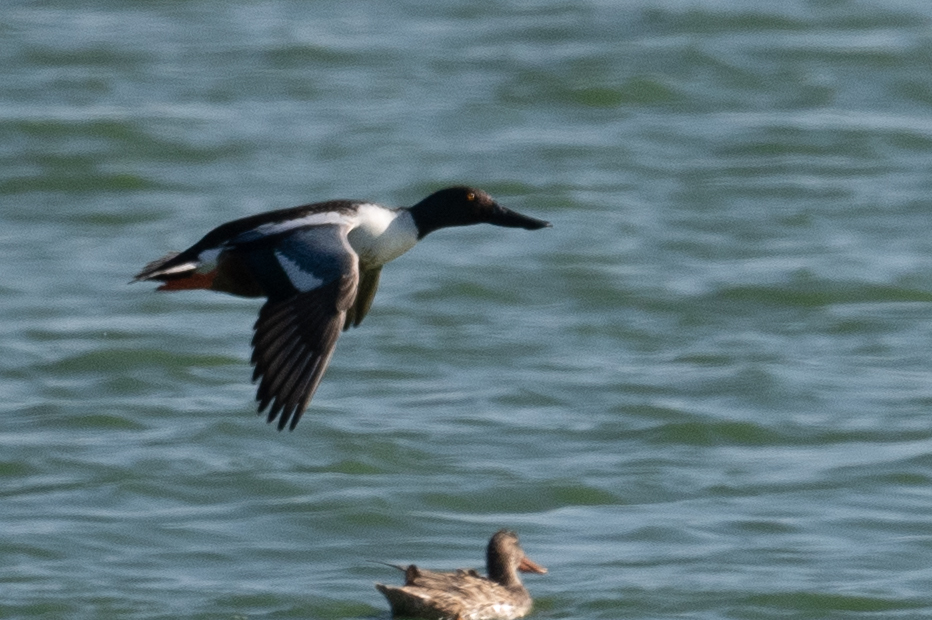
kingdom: Animalia
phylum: Chordata
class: Aves
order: Anseriformes
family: Anatidae
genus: Spatula
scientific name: Spatula clypeata
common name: Northern shoveler
